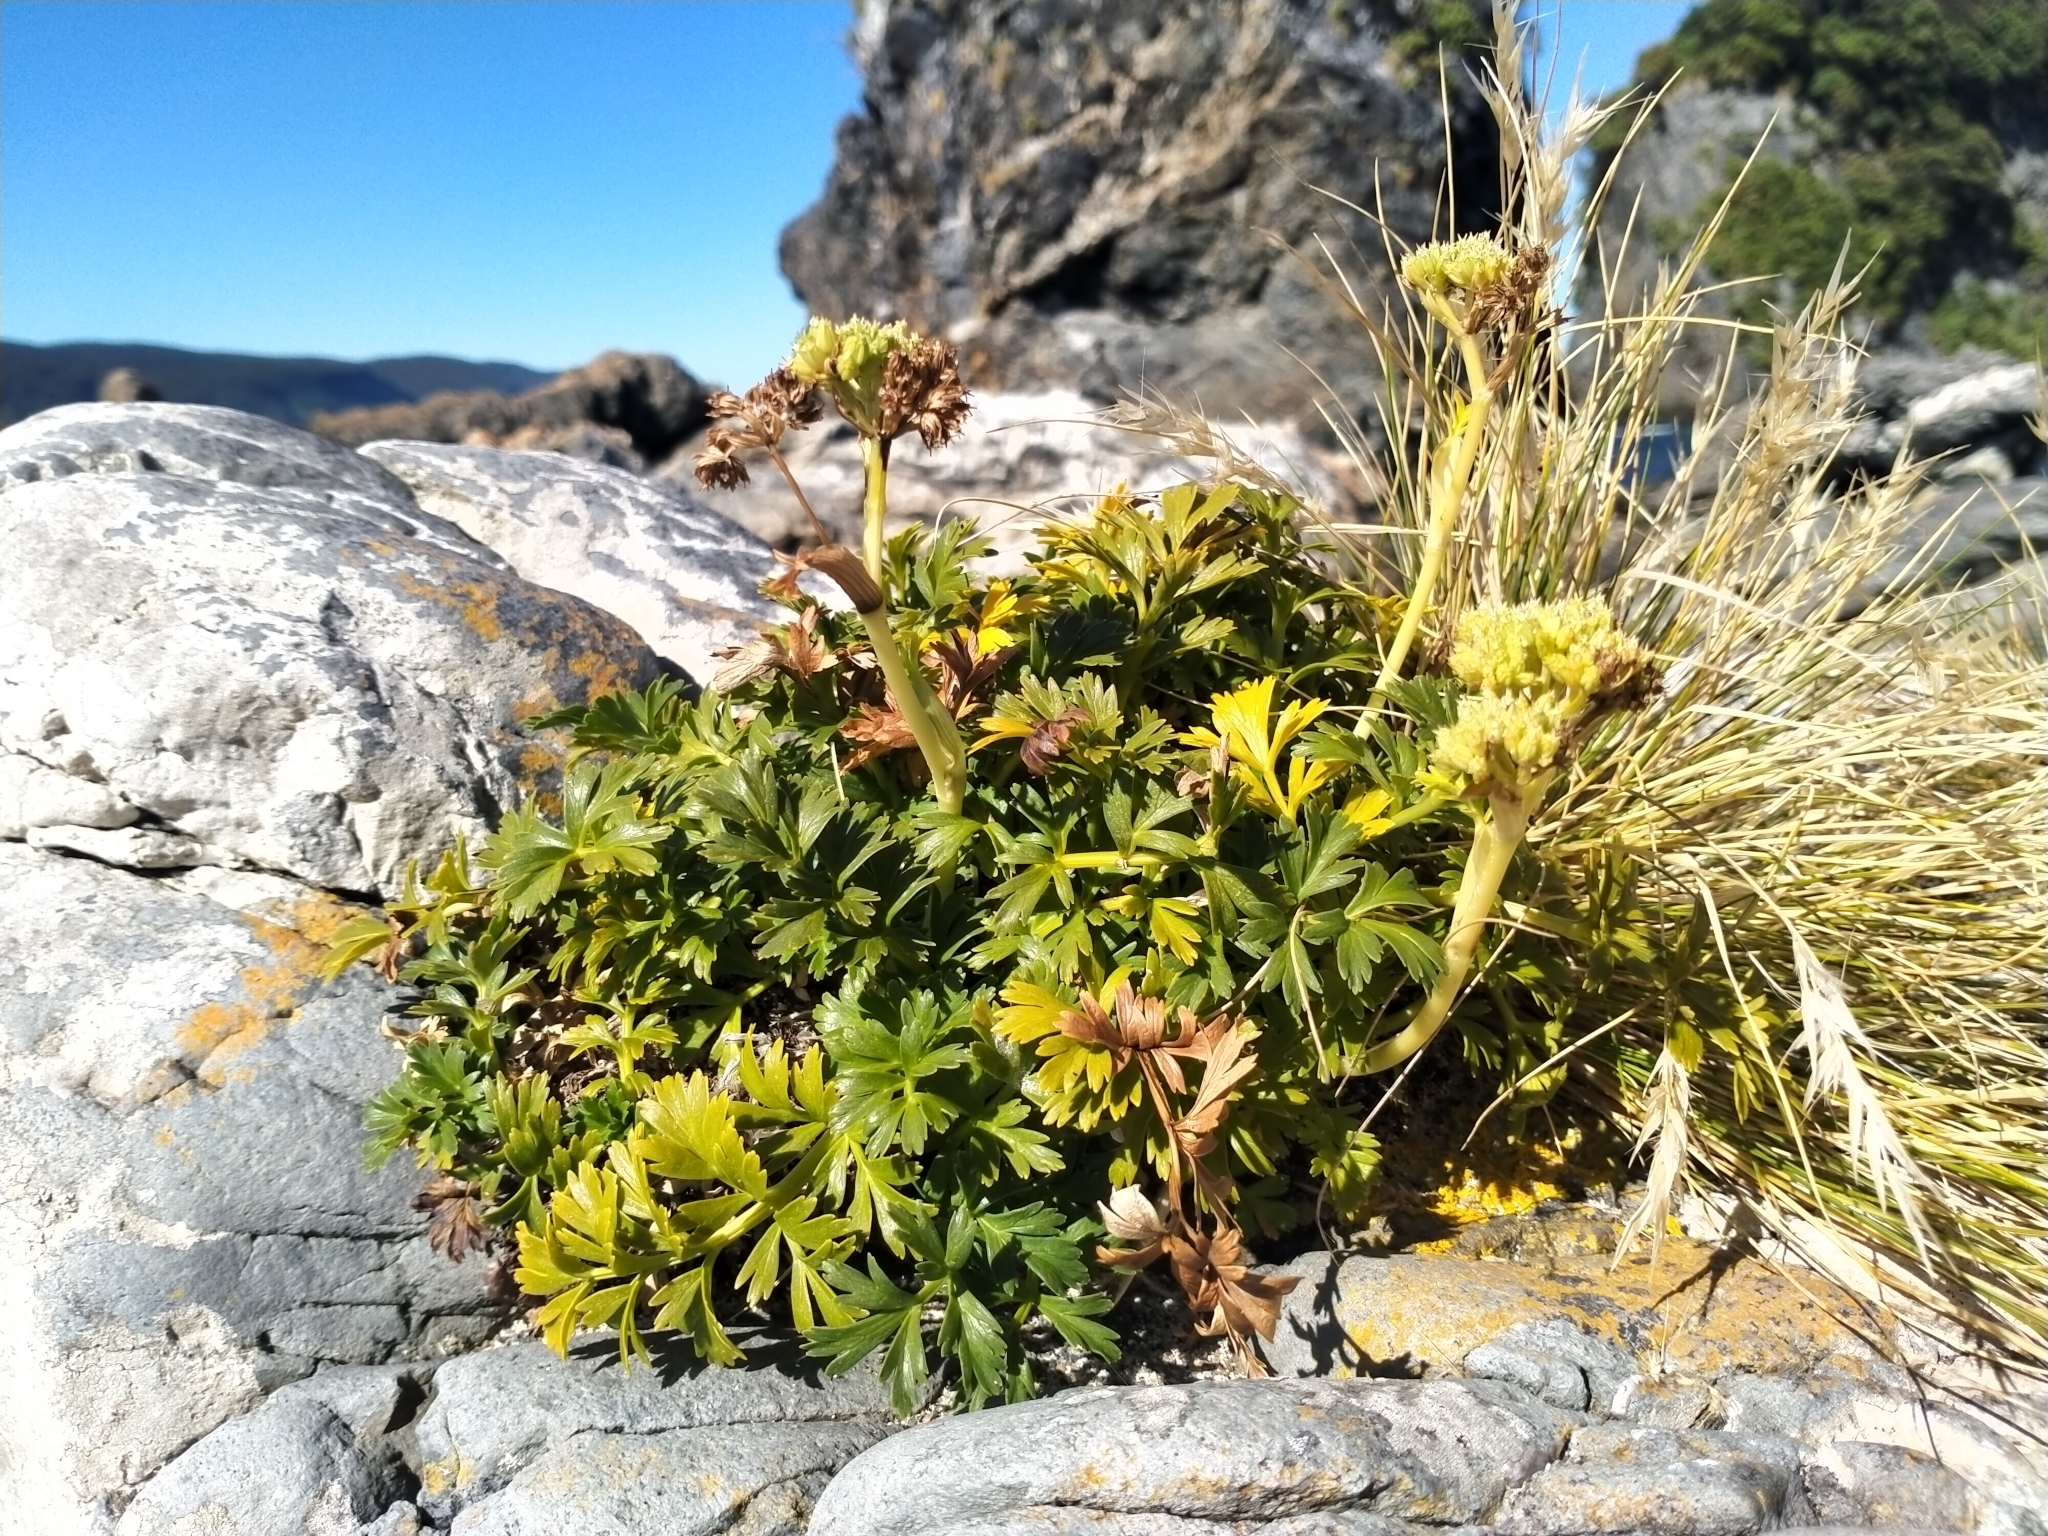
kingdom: Plantae
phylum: Tracheophyta
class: Magnoliopsida
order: Apiales
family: Apiaceae
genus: Anisotome
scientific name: Anisotome lyallii
